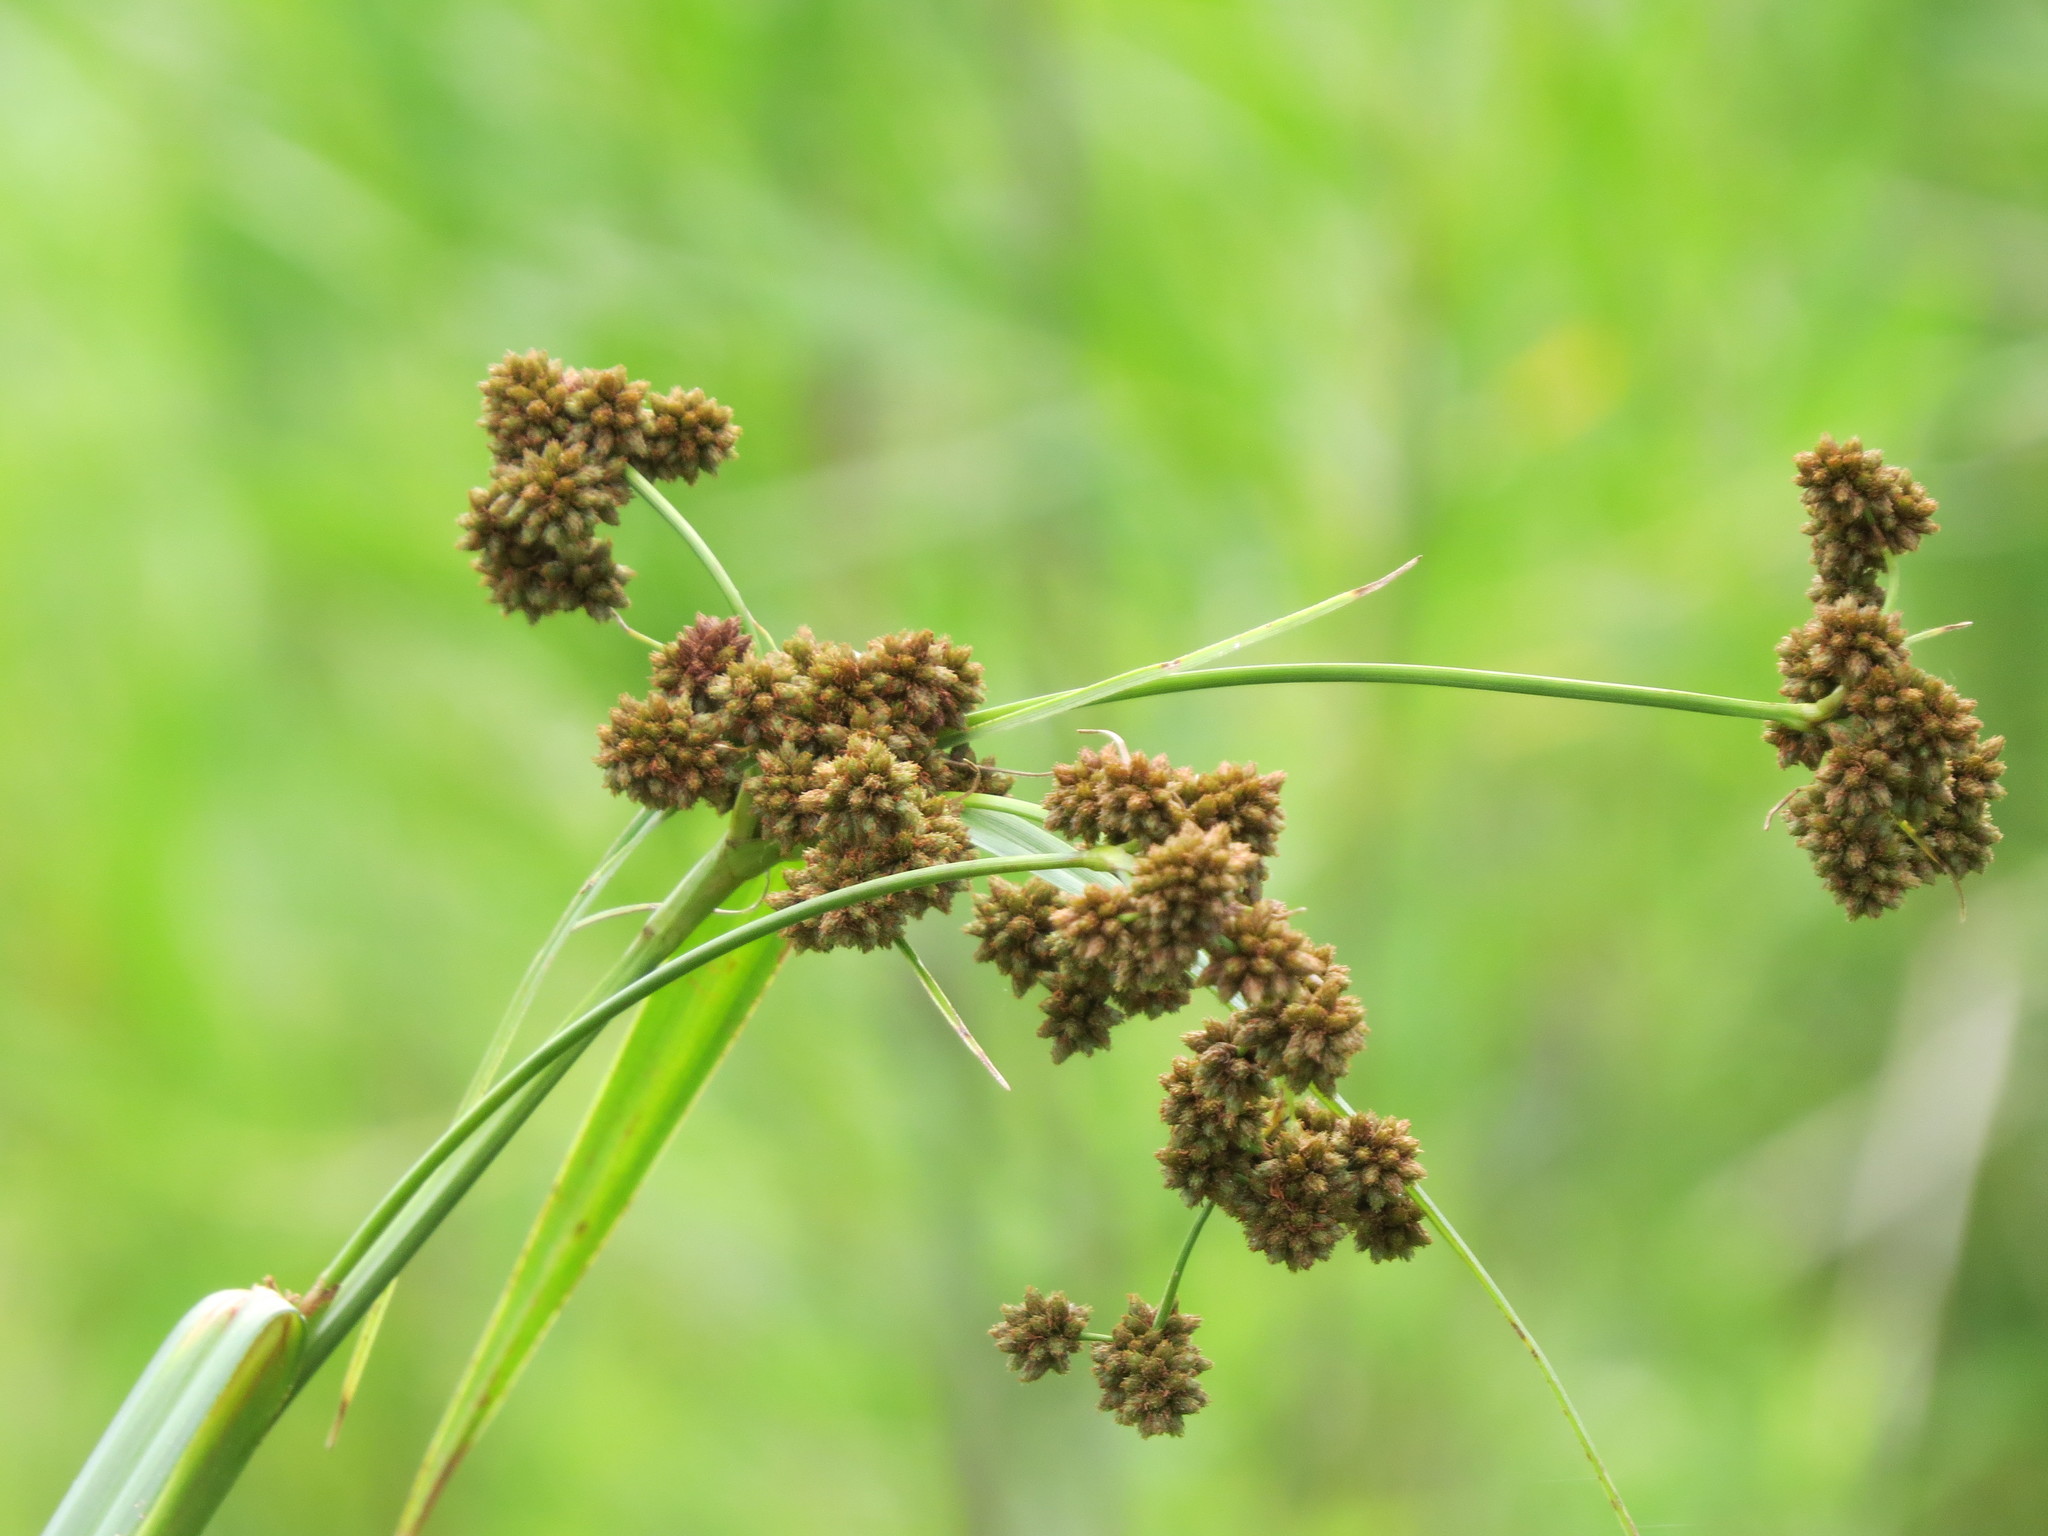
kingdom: Plantae
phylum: Tracheophyta
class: Liliopsida
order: Poales
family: Cyperaceae
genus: Scirpus
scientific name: Scirpus atrovirens
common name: Black bulrush
